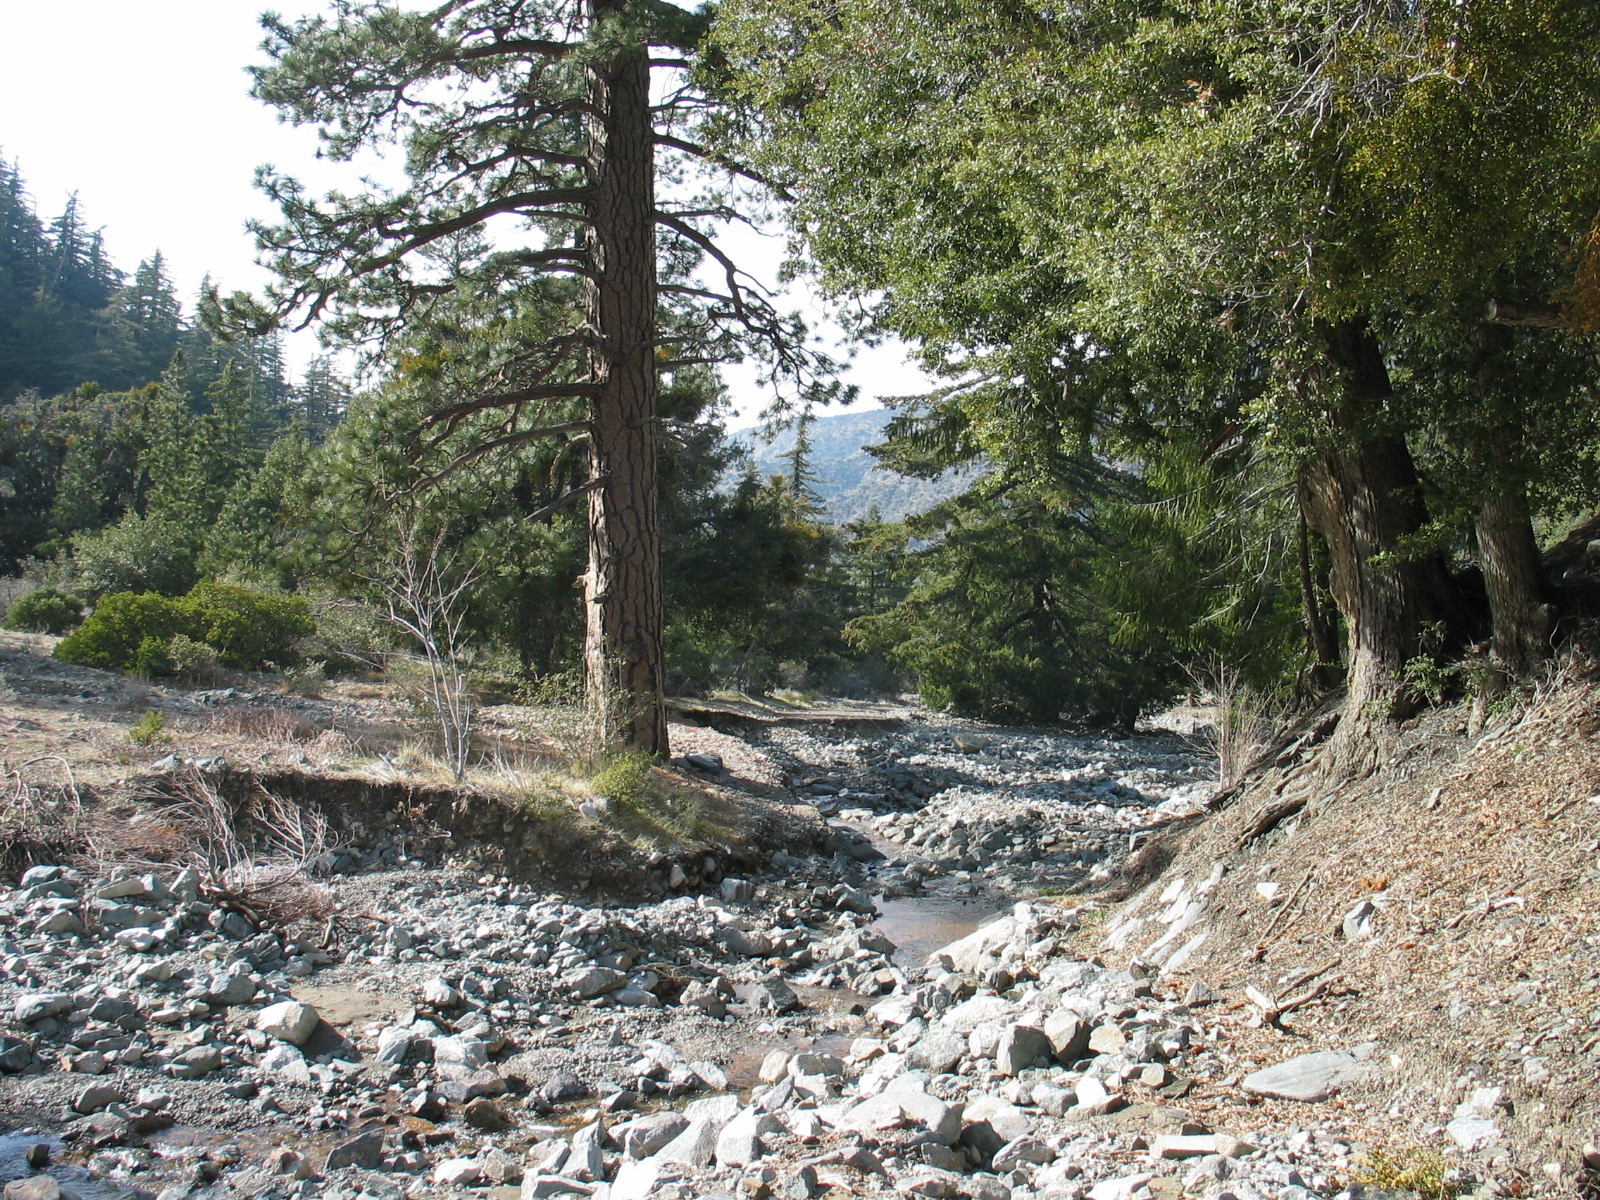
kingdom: Plantae
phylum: Tracheophyta
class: Magnoliopsida
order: Fagales
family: Fagaceae
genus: Quercus
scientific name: Quercus chrysolepis
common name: Canyon live oak
